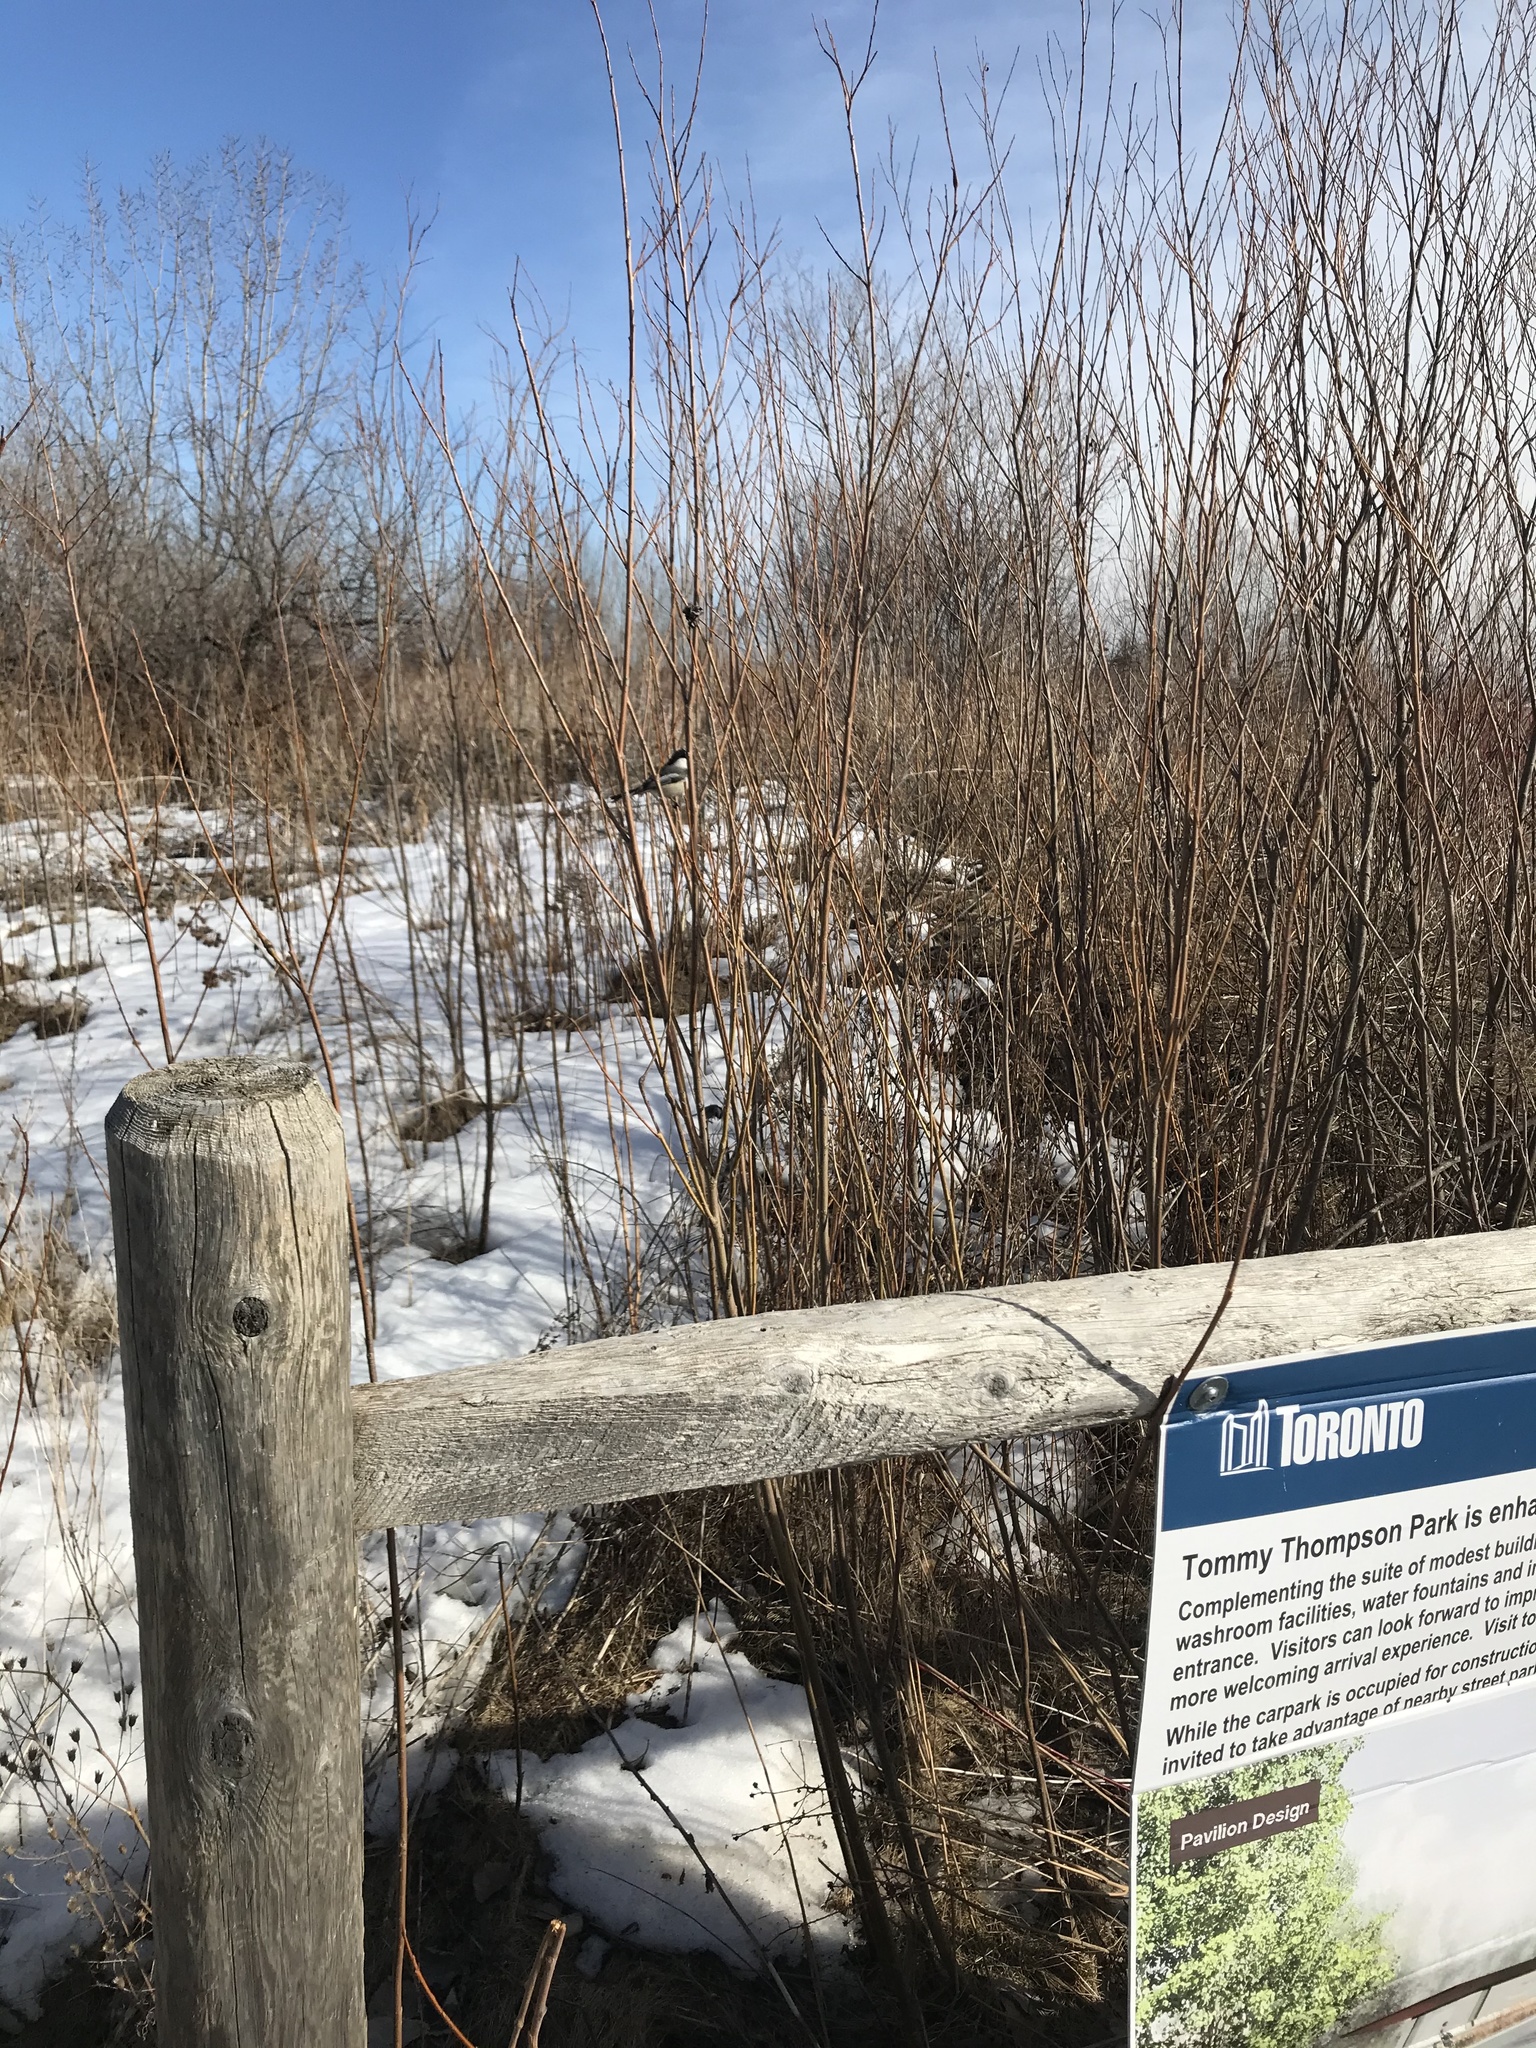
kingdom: Animalia
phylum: Chordata
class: Aves
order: Passeriformes
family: Paridae
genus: Poecile
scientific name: Poecile atricapillus
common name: Black-capped chickadee
